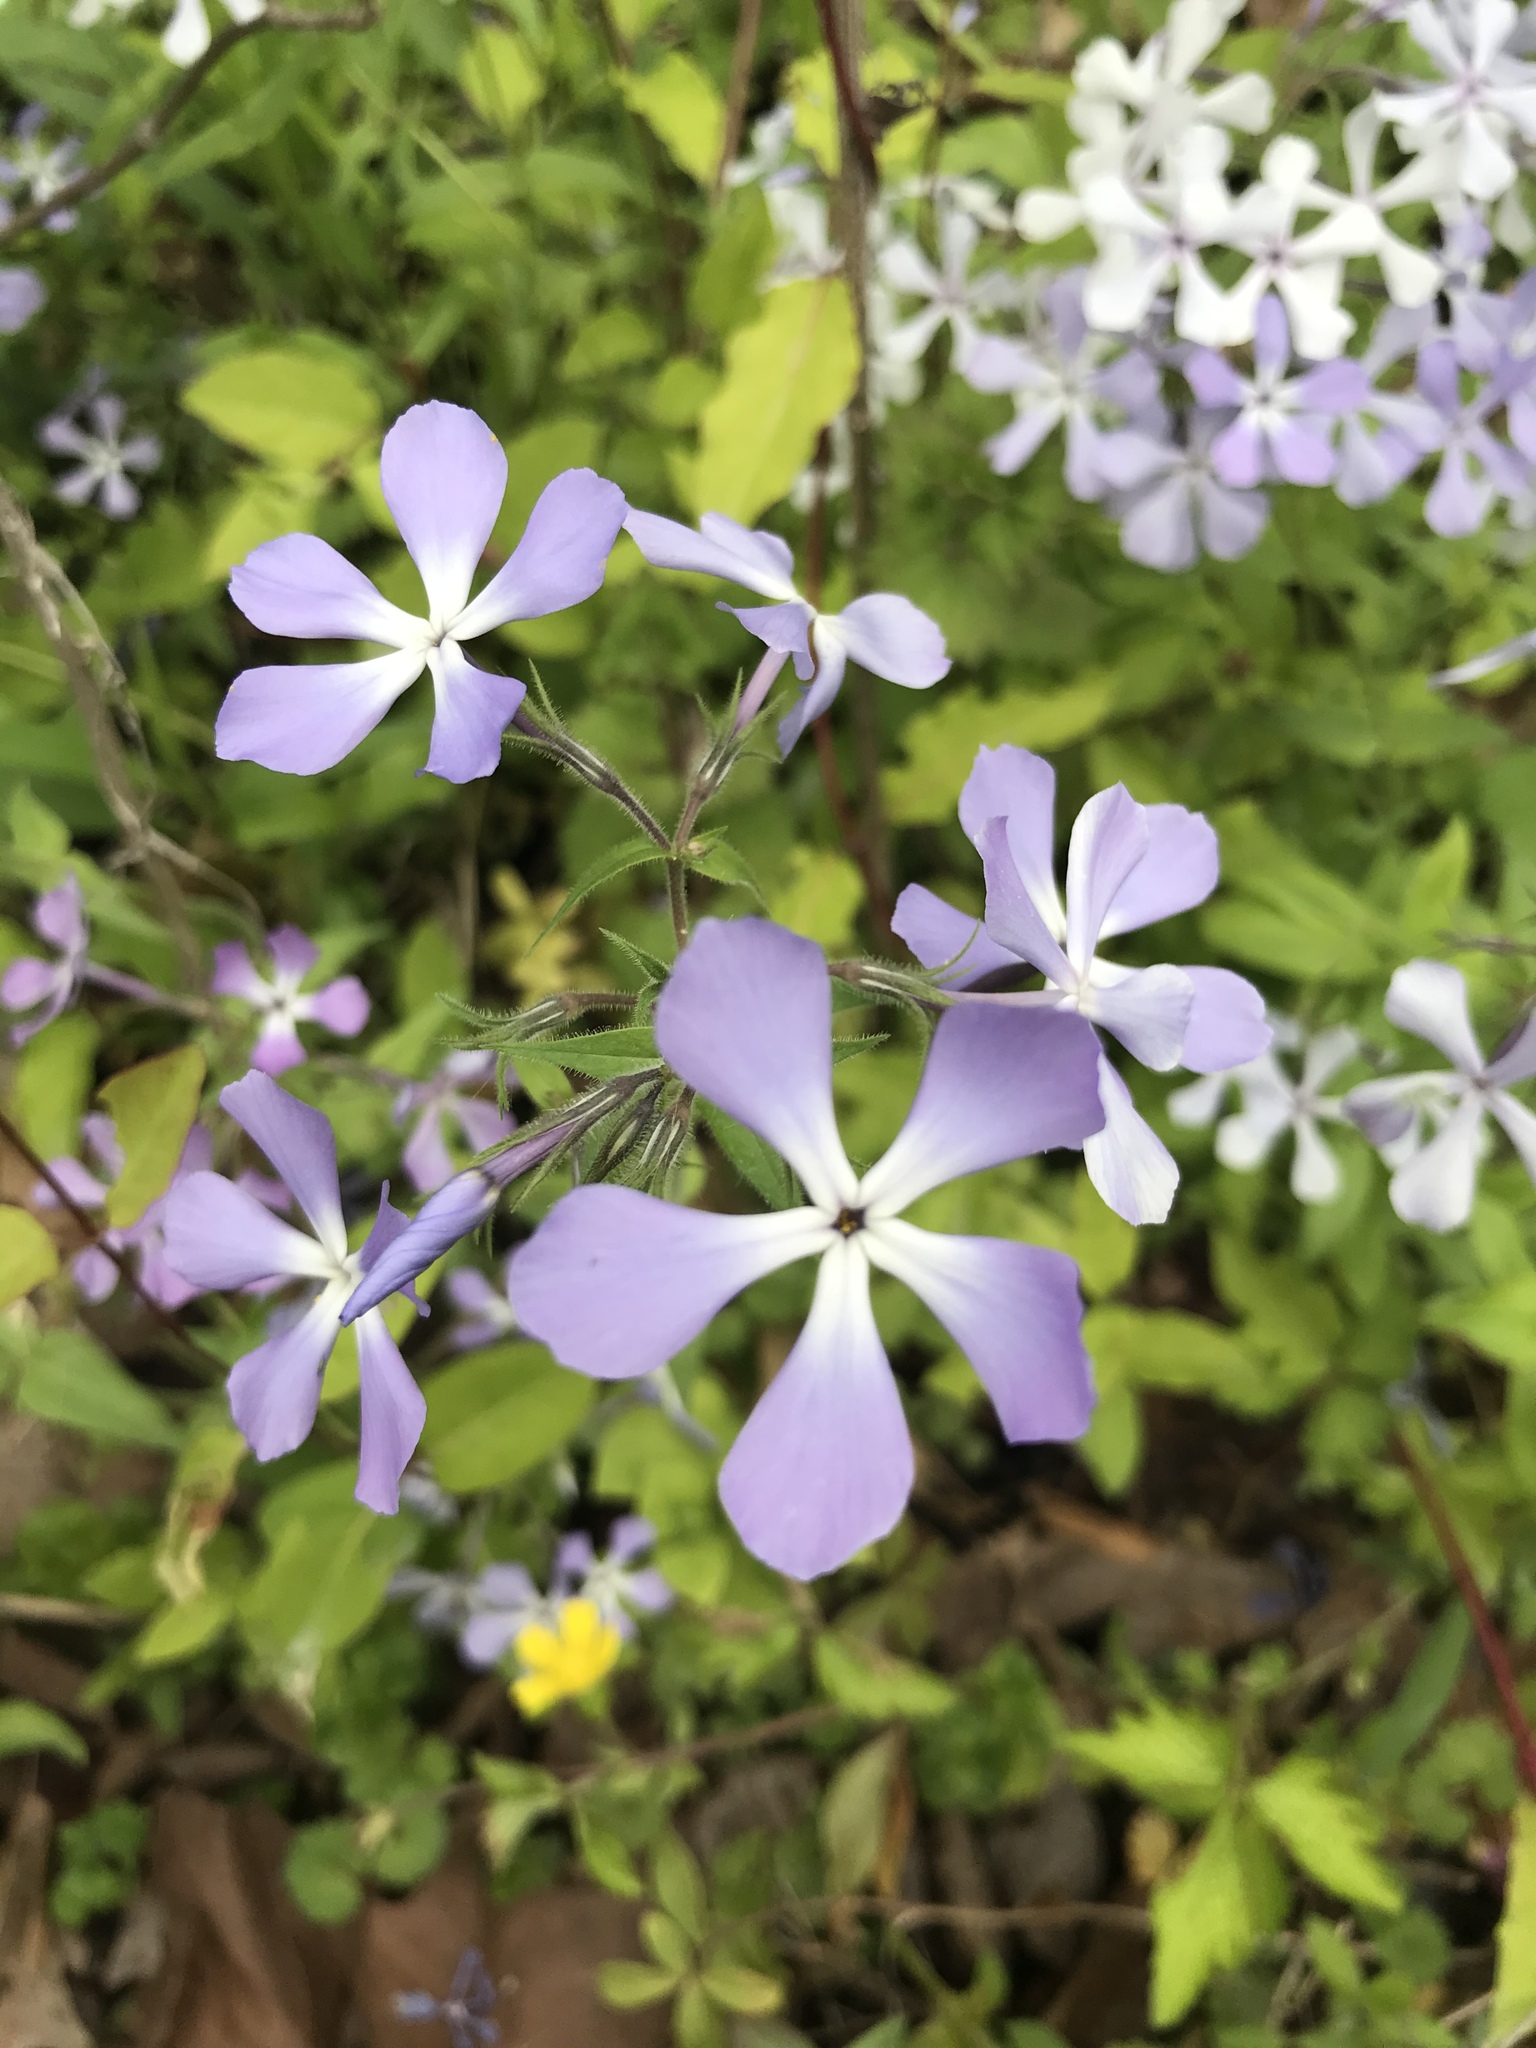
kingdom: Plantae
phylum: Tracheophyta
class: Magnoliopsida
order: Ericales
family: Polemoniaceae
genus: Phlox
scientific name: Phlox divaricata
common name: Blue phlox
